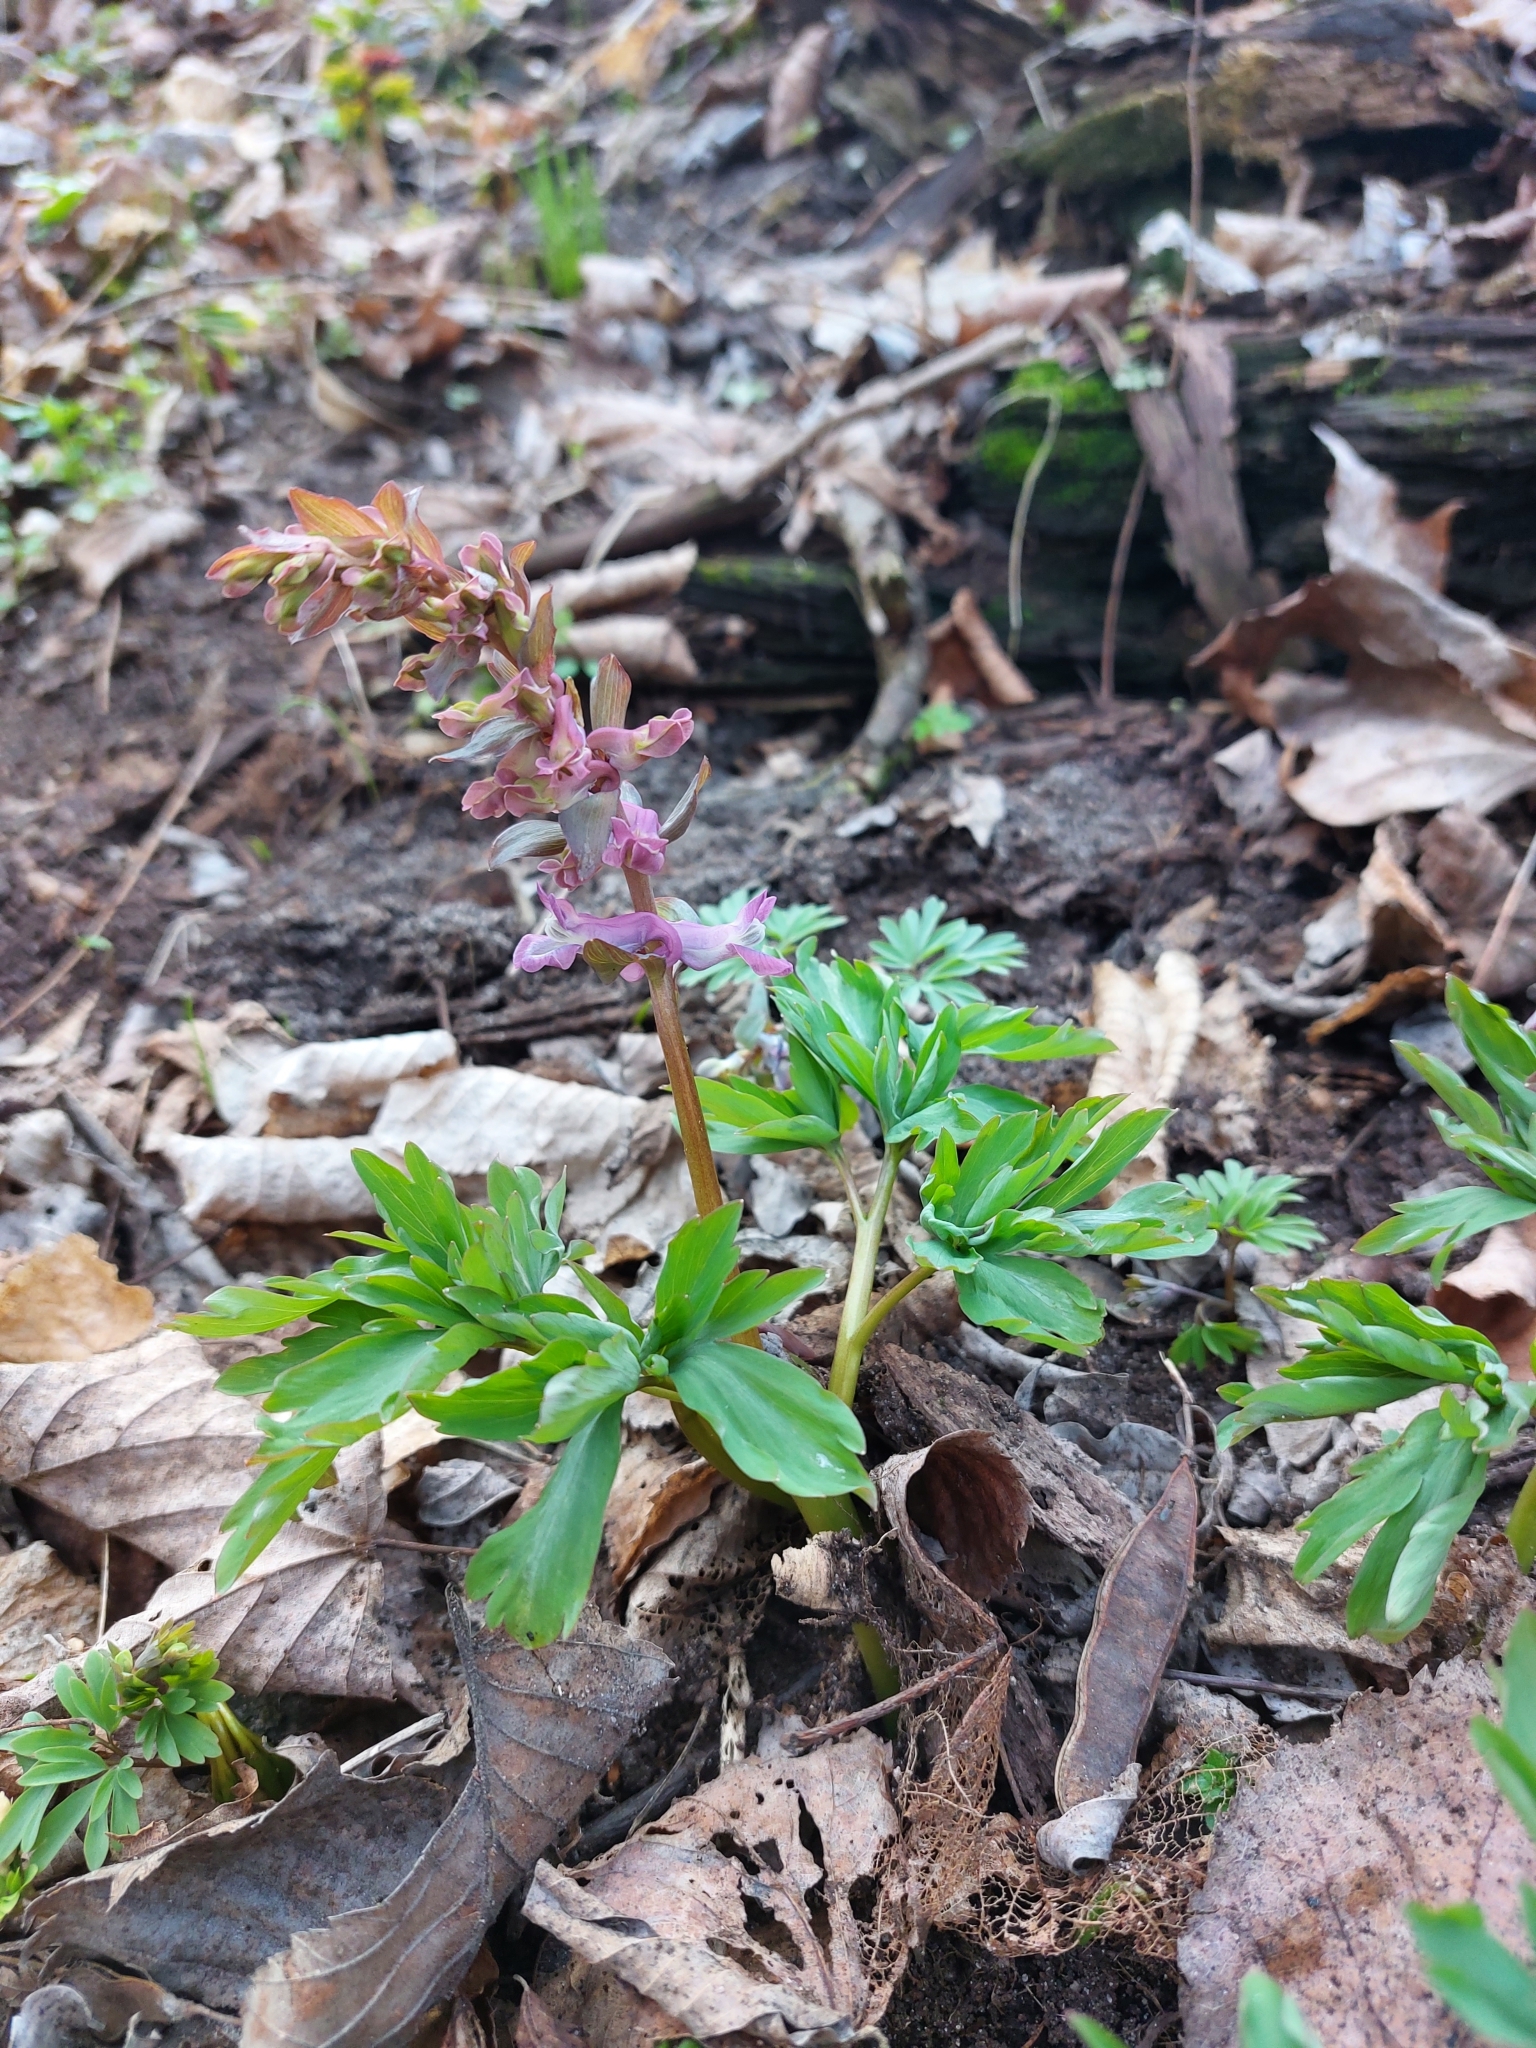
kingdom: Plantae
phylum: Tracheophyta
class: Magnoliopsida
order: Ranunculales
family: Papaveraceae
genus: Corydalis
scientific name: Corydalis cava
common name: Hollowroot
